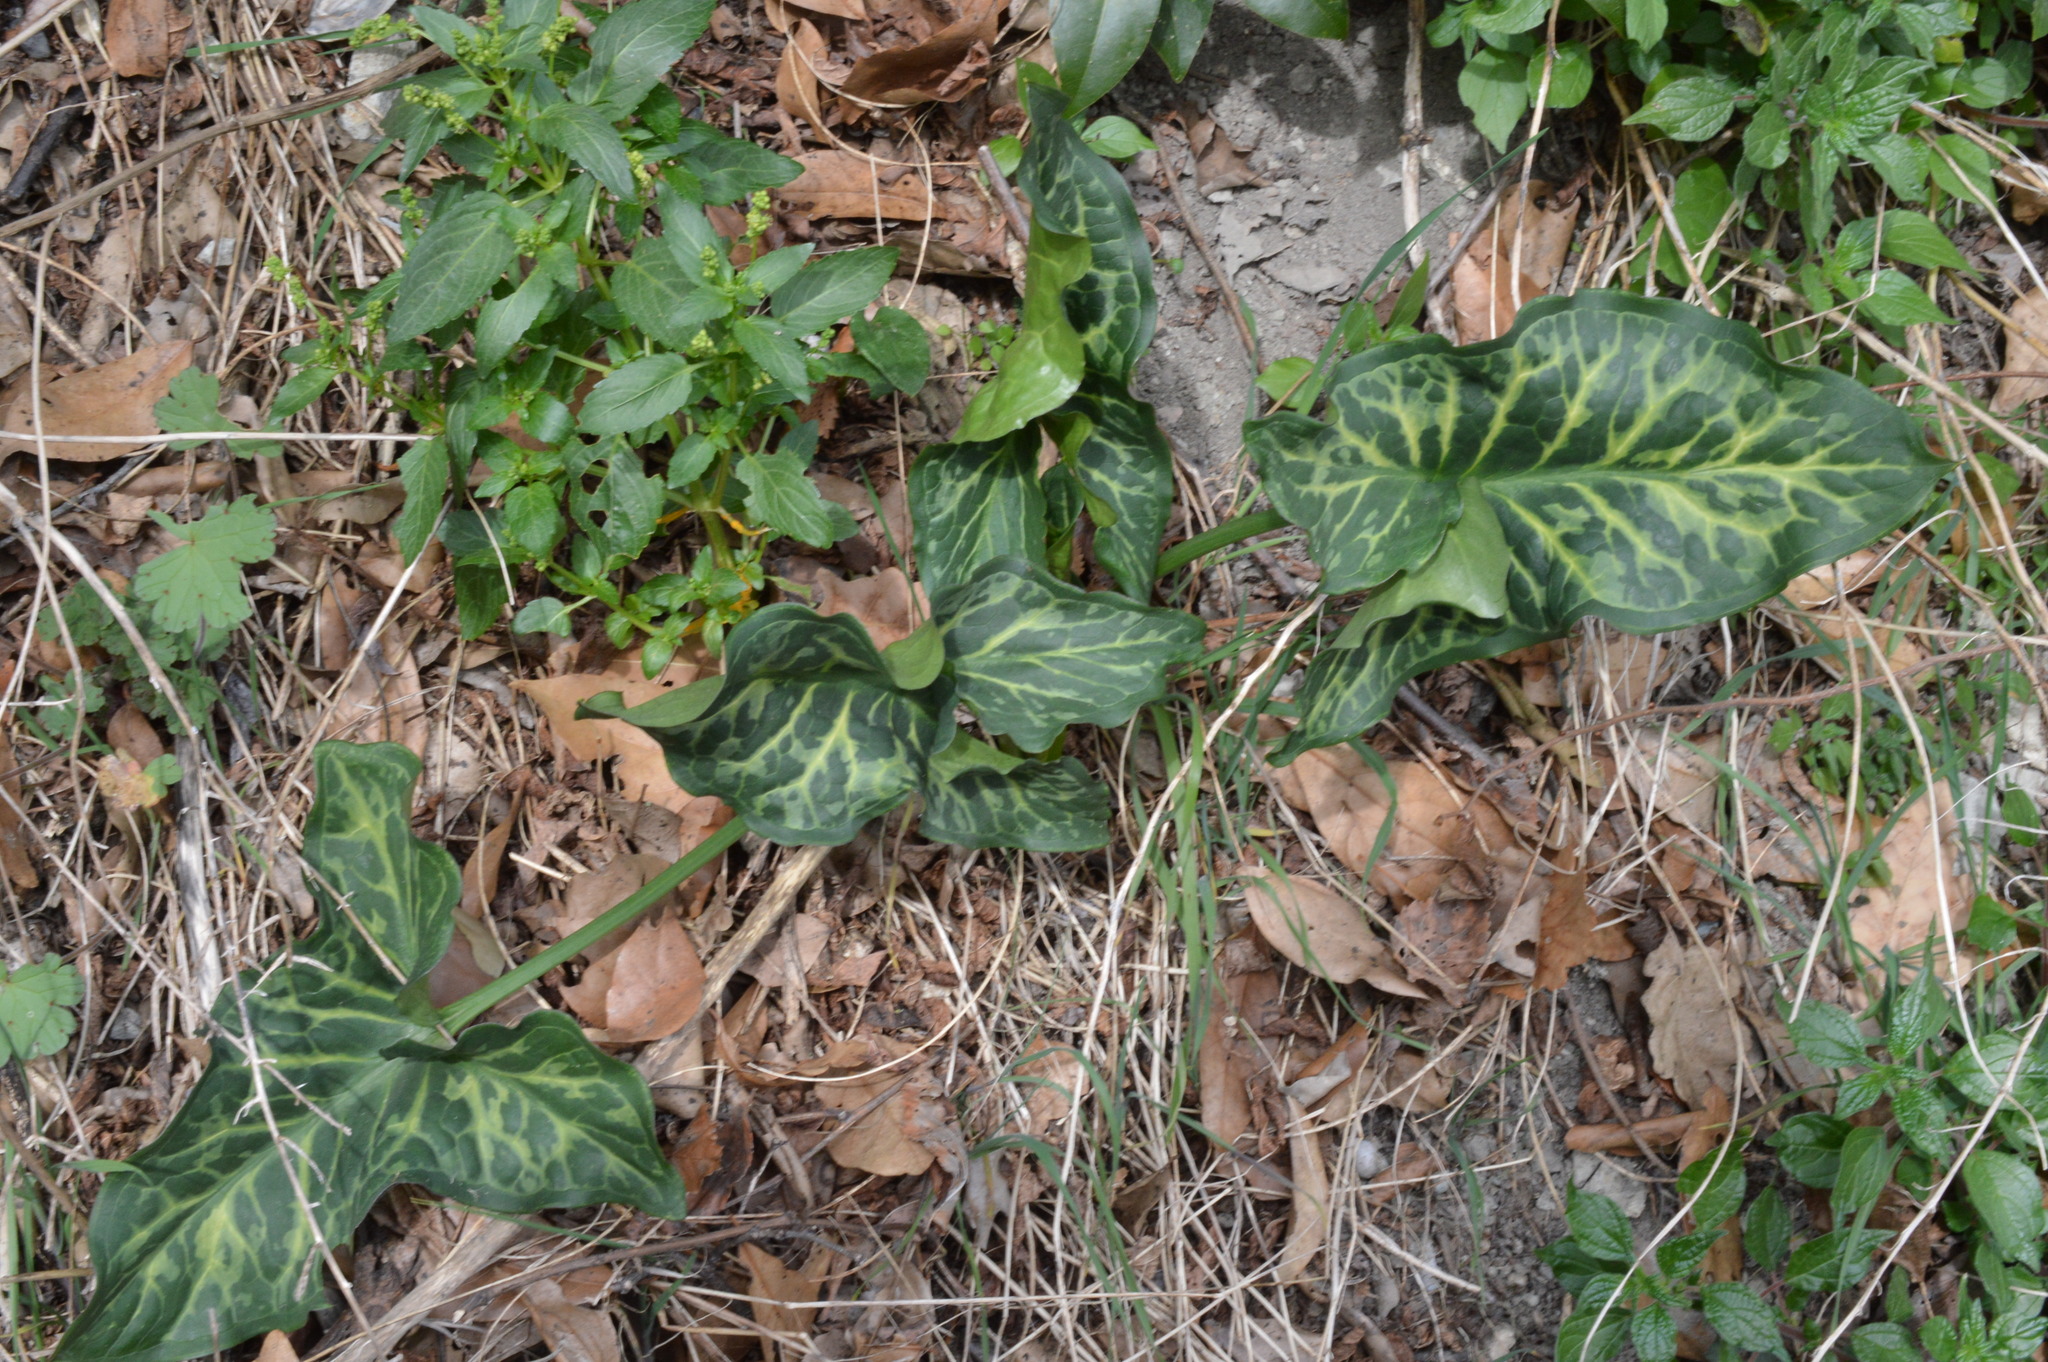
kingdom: Plantae
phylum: Tracheophyta
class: Liliopsida
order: Alismatales
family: Araceae
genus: Arum
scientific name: Arum italicum
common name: Italian lords-and-ladies
